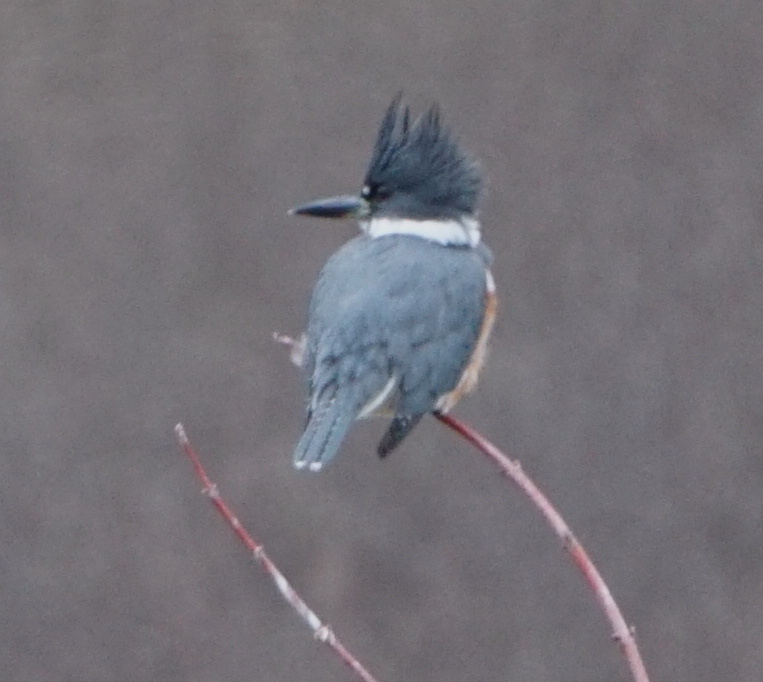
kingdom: Animalia
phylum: Chordata
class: Aves
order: Coraciiformes
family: Alcedinidae
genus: Megaceryle
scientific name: Megaceryle alcyon
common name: Belted kingfisher
